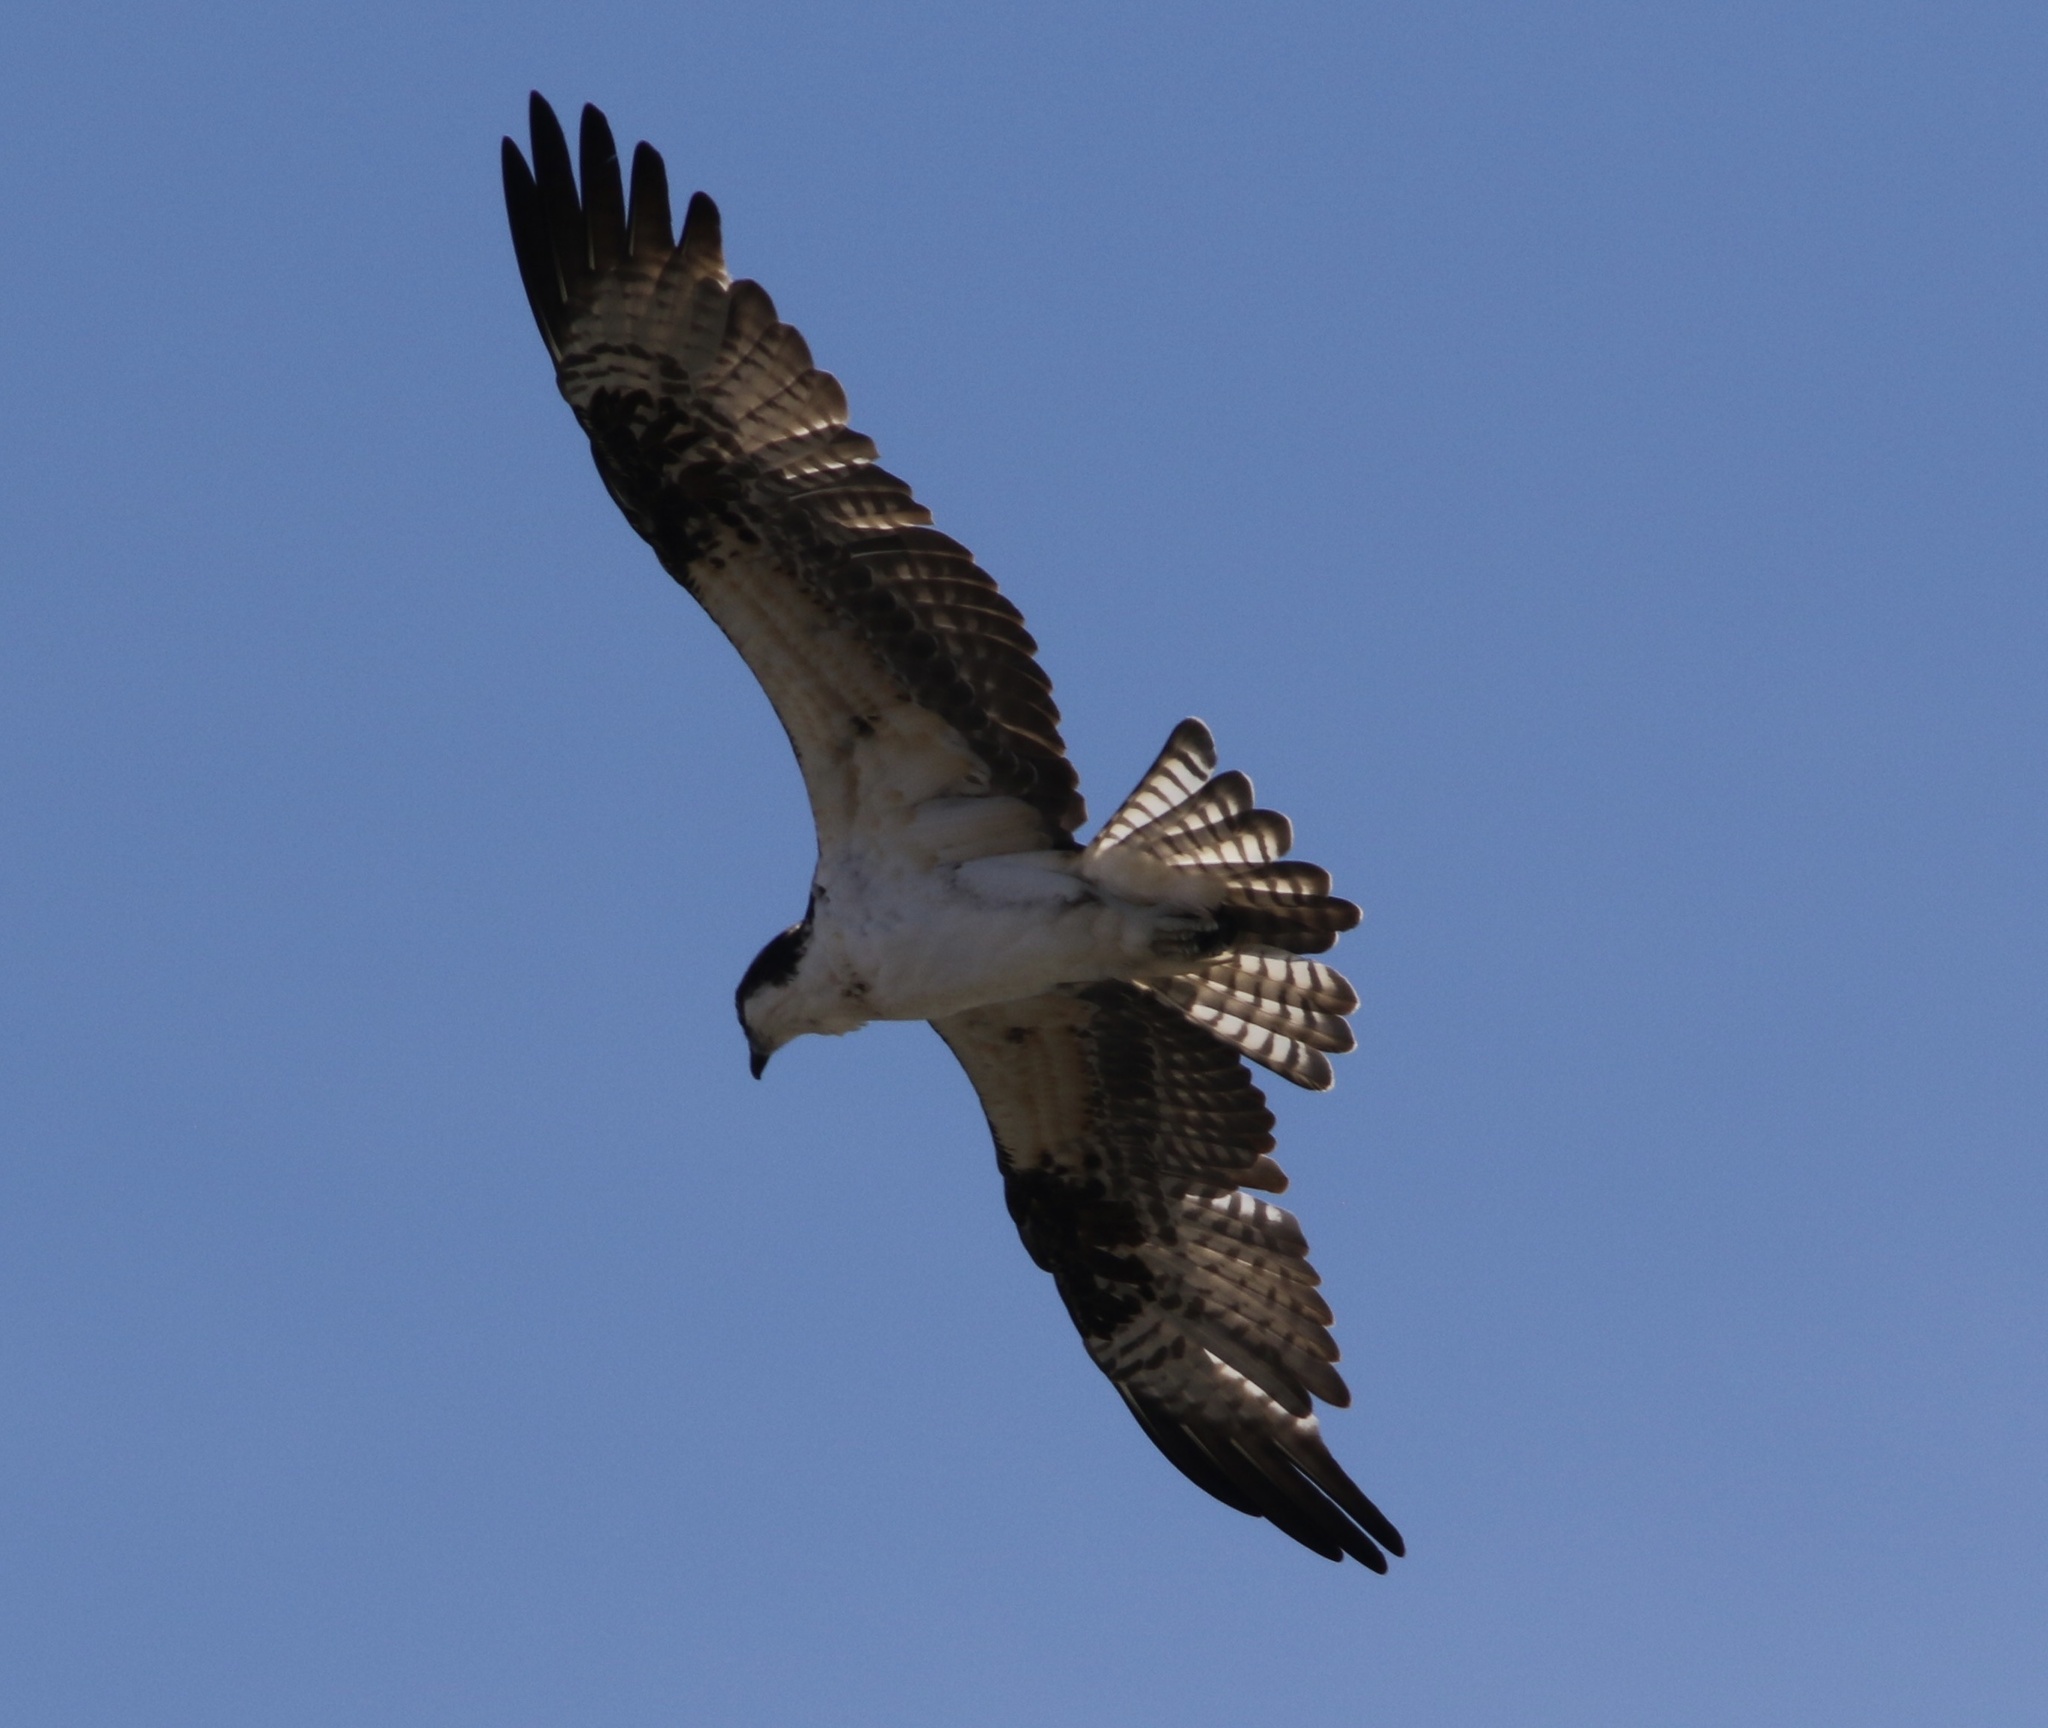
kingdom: Animalia
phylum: Chordata
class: Aves
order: Accipitriformes
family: Pandionidae
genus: Pandion
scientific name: Pandion haliaetus
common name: Osprey
